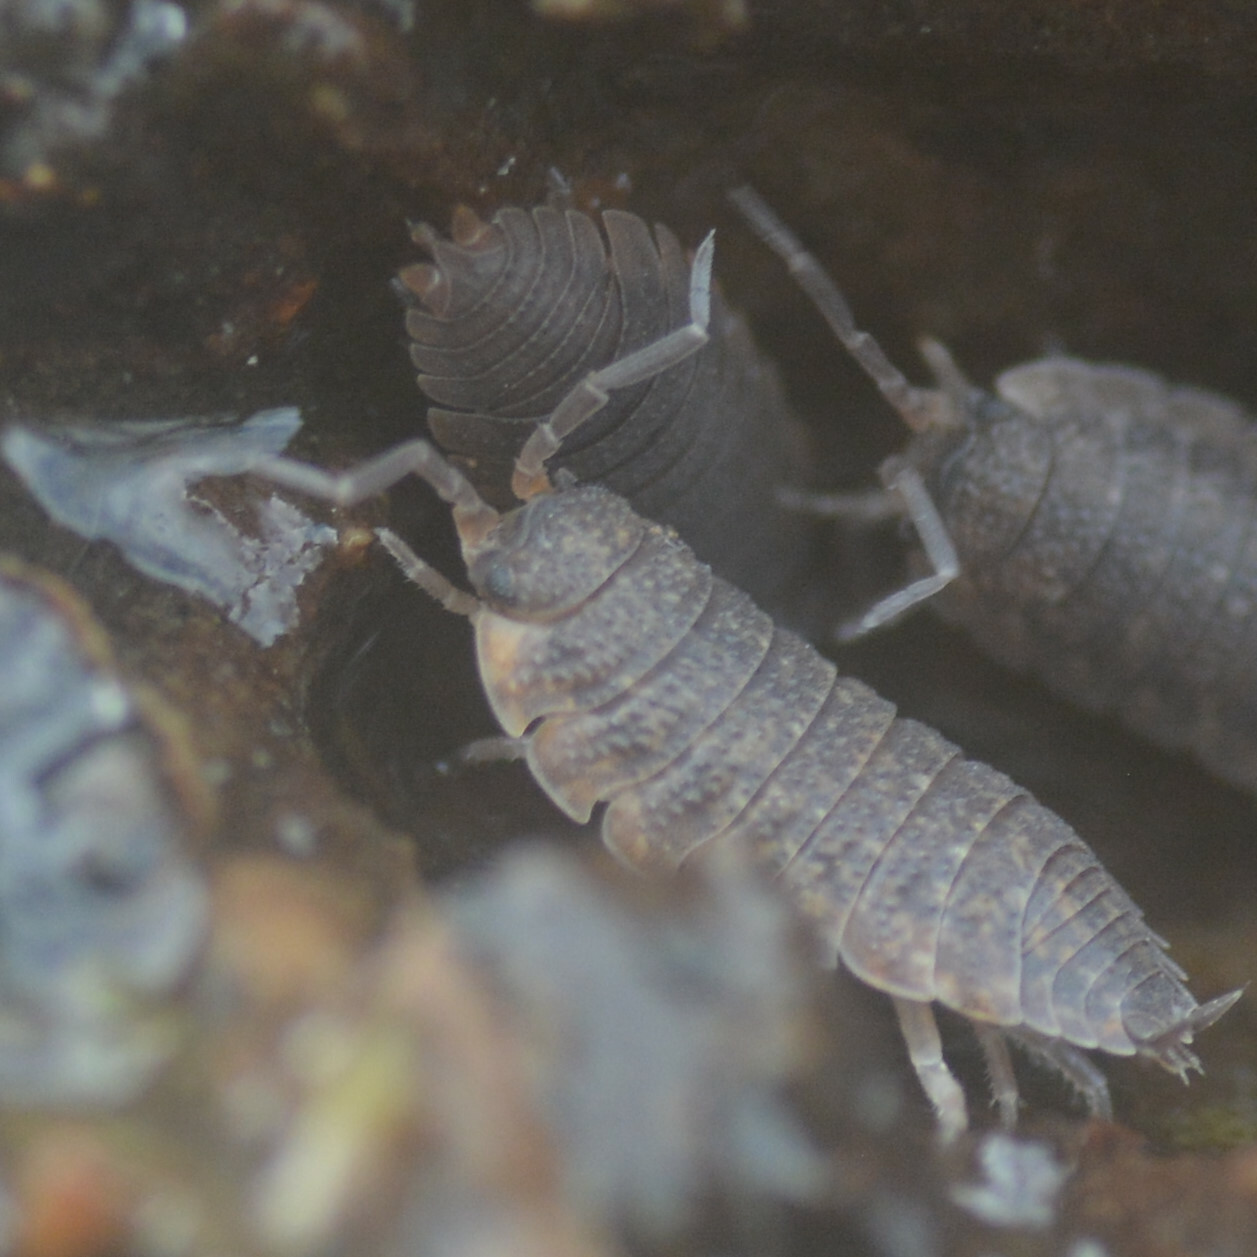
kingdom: Animalia
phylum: Arthropoda
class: Malacostraca
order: Isopoda
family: Porcellionidae
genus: Porcellio
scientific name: Porcellio scaber
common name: Common rough woodlouse
